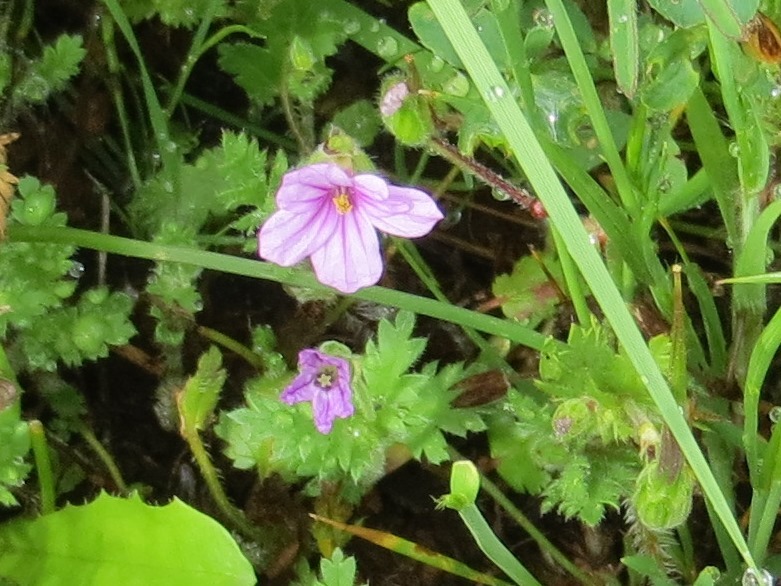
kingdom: Plantae
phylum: Tracheophyta
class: Magnoliopsida
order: Geraniales
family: Geraniaceae
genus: Erodium
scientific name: Erodium botrys
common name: Mediterranean stork's-bill
